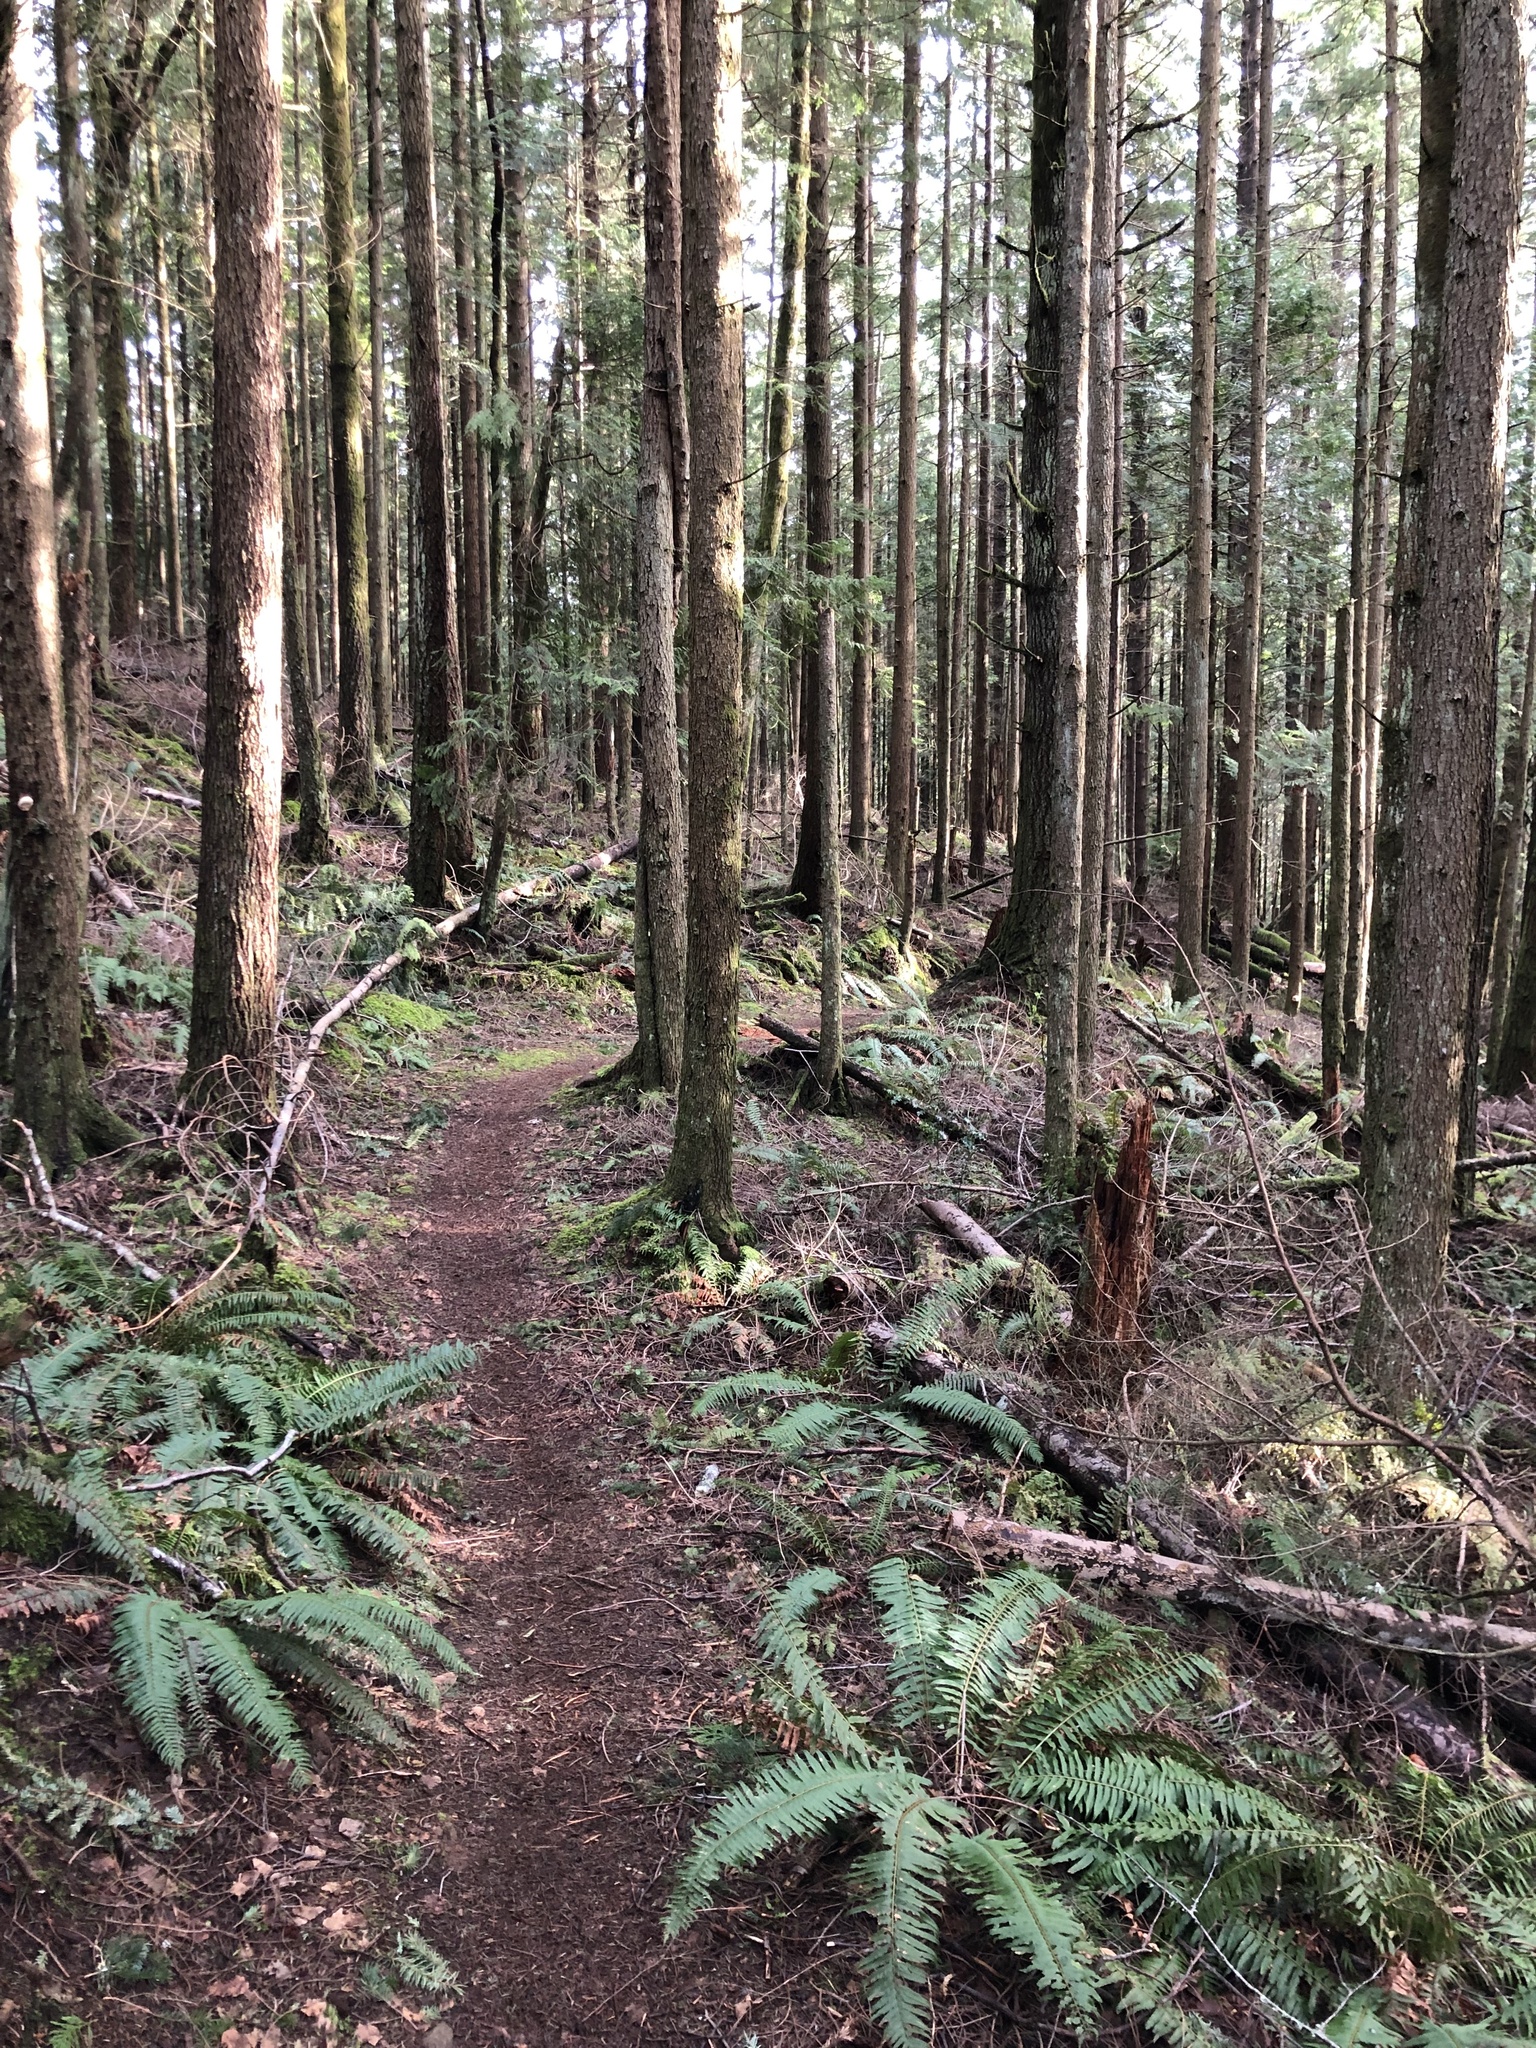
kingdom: Plantae
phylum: Tracheophyta
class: Polypodiopsida
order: Polypodiales
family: Dryopteridaceae
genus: Polystichum
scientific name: Polystichum munitum
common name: Western sword-fern
